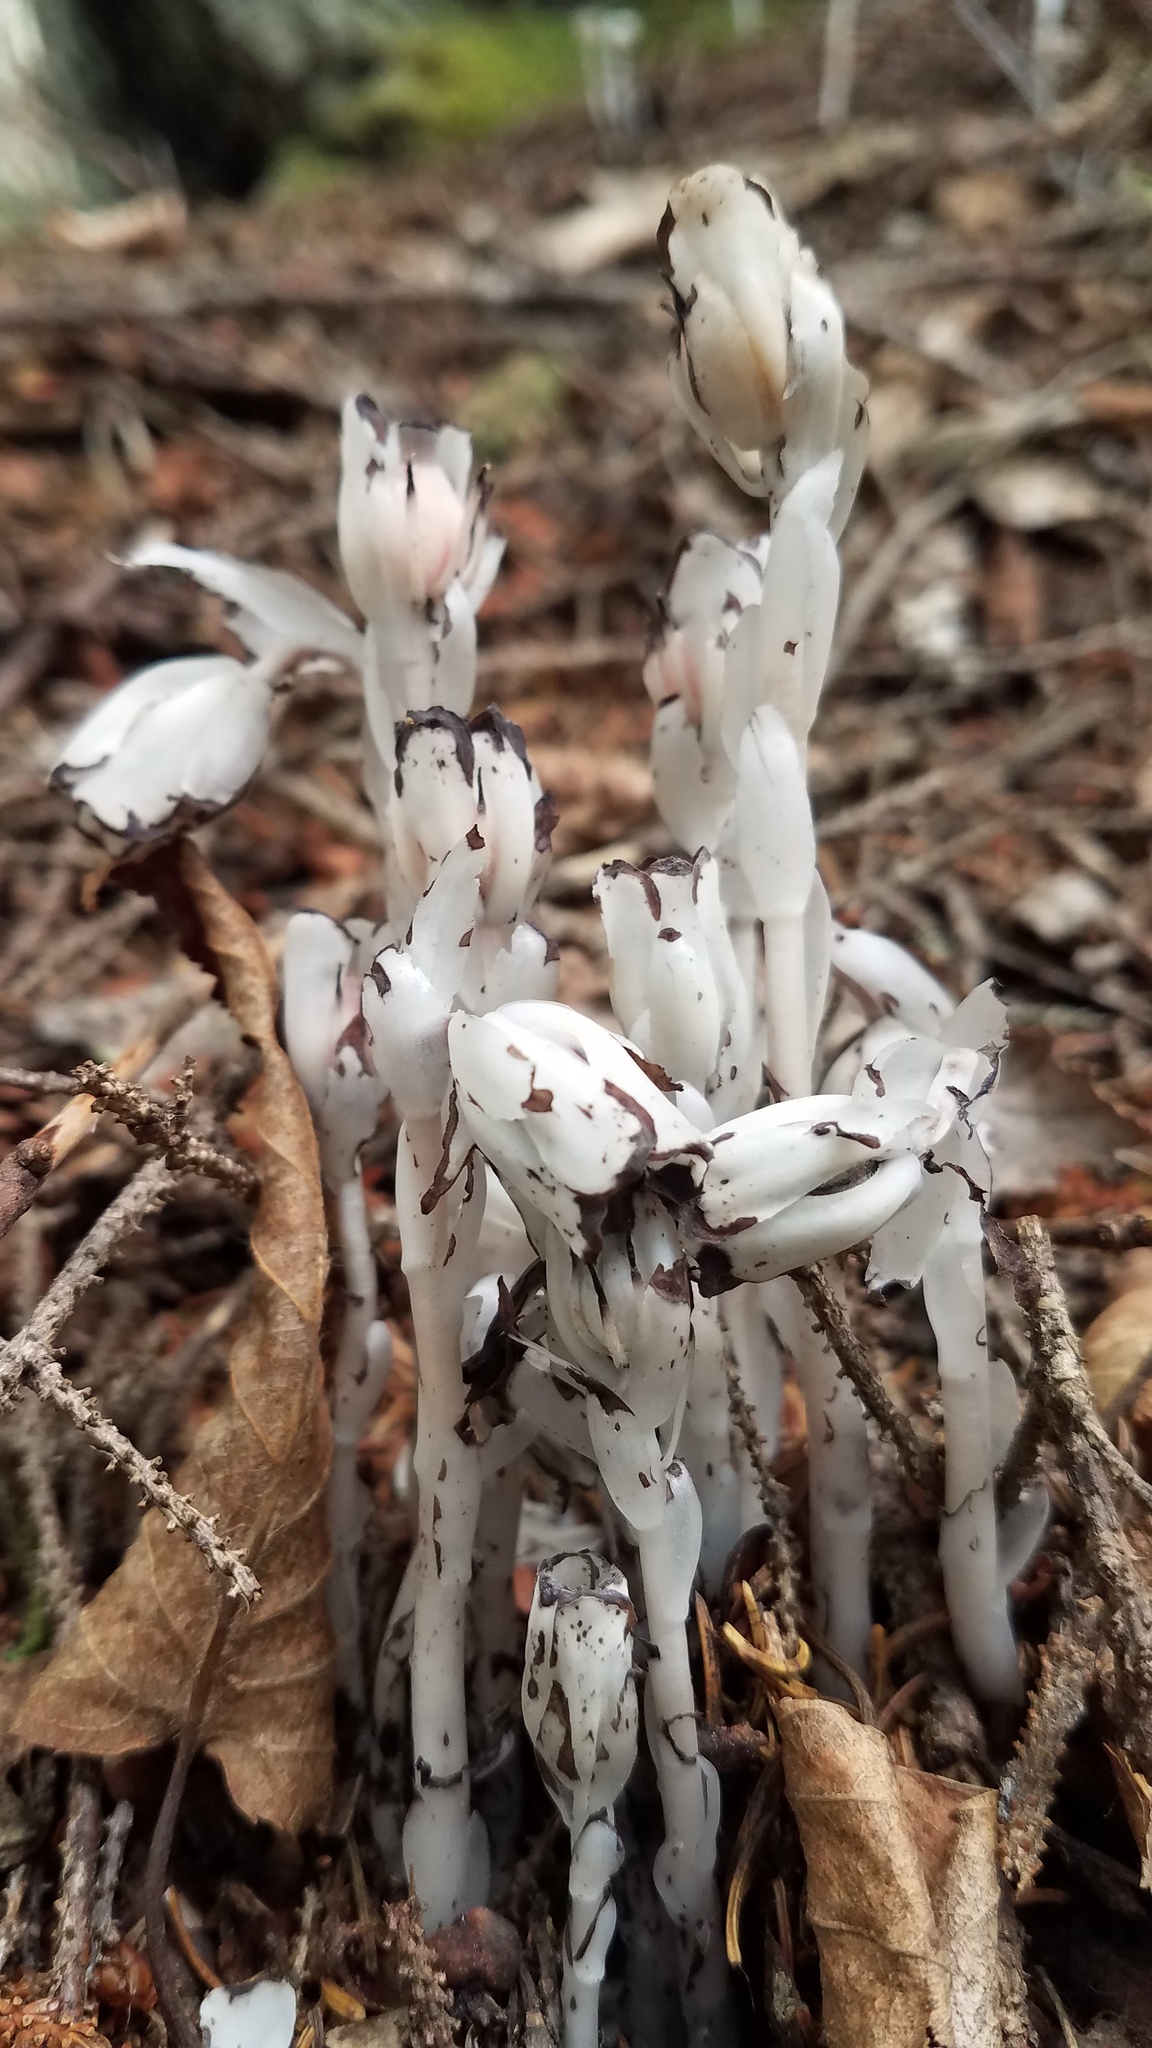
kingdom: Plantae
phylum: Tracheophyta
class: Magnoliopsida
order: Ericales
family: Ericaceae
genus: Monotropa
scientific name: Monotropa uniflora
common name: Convulsion root
